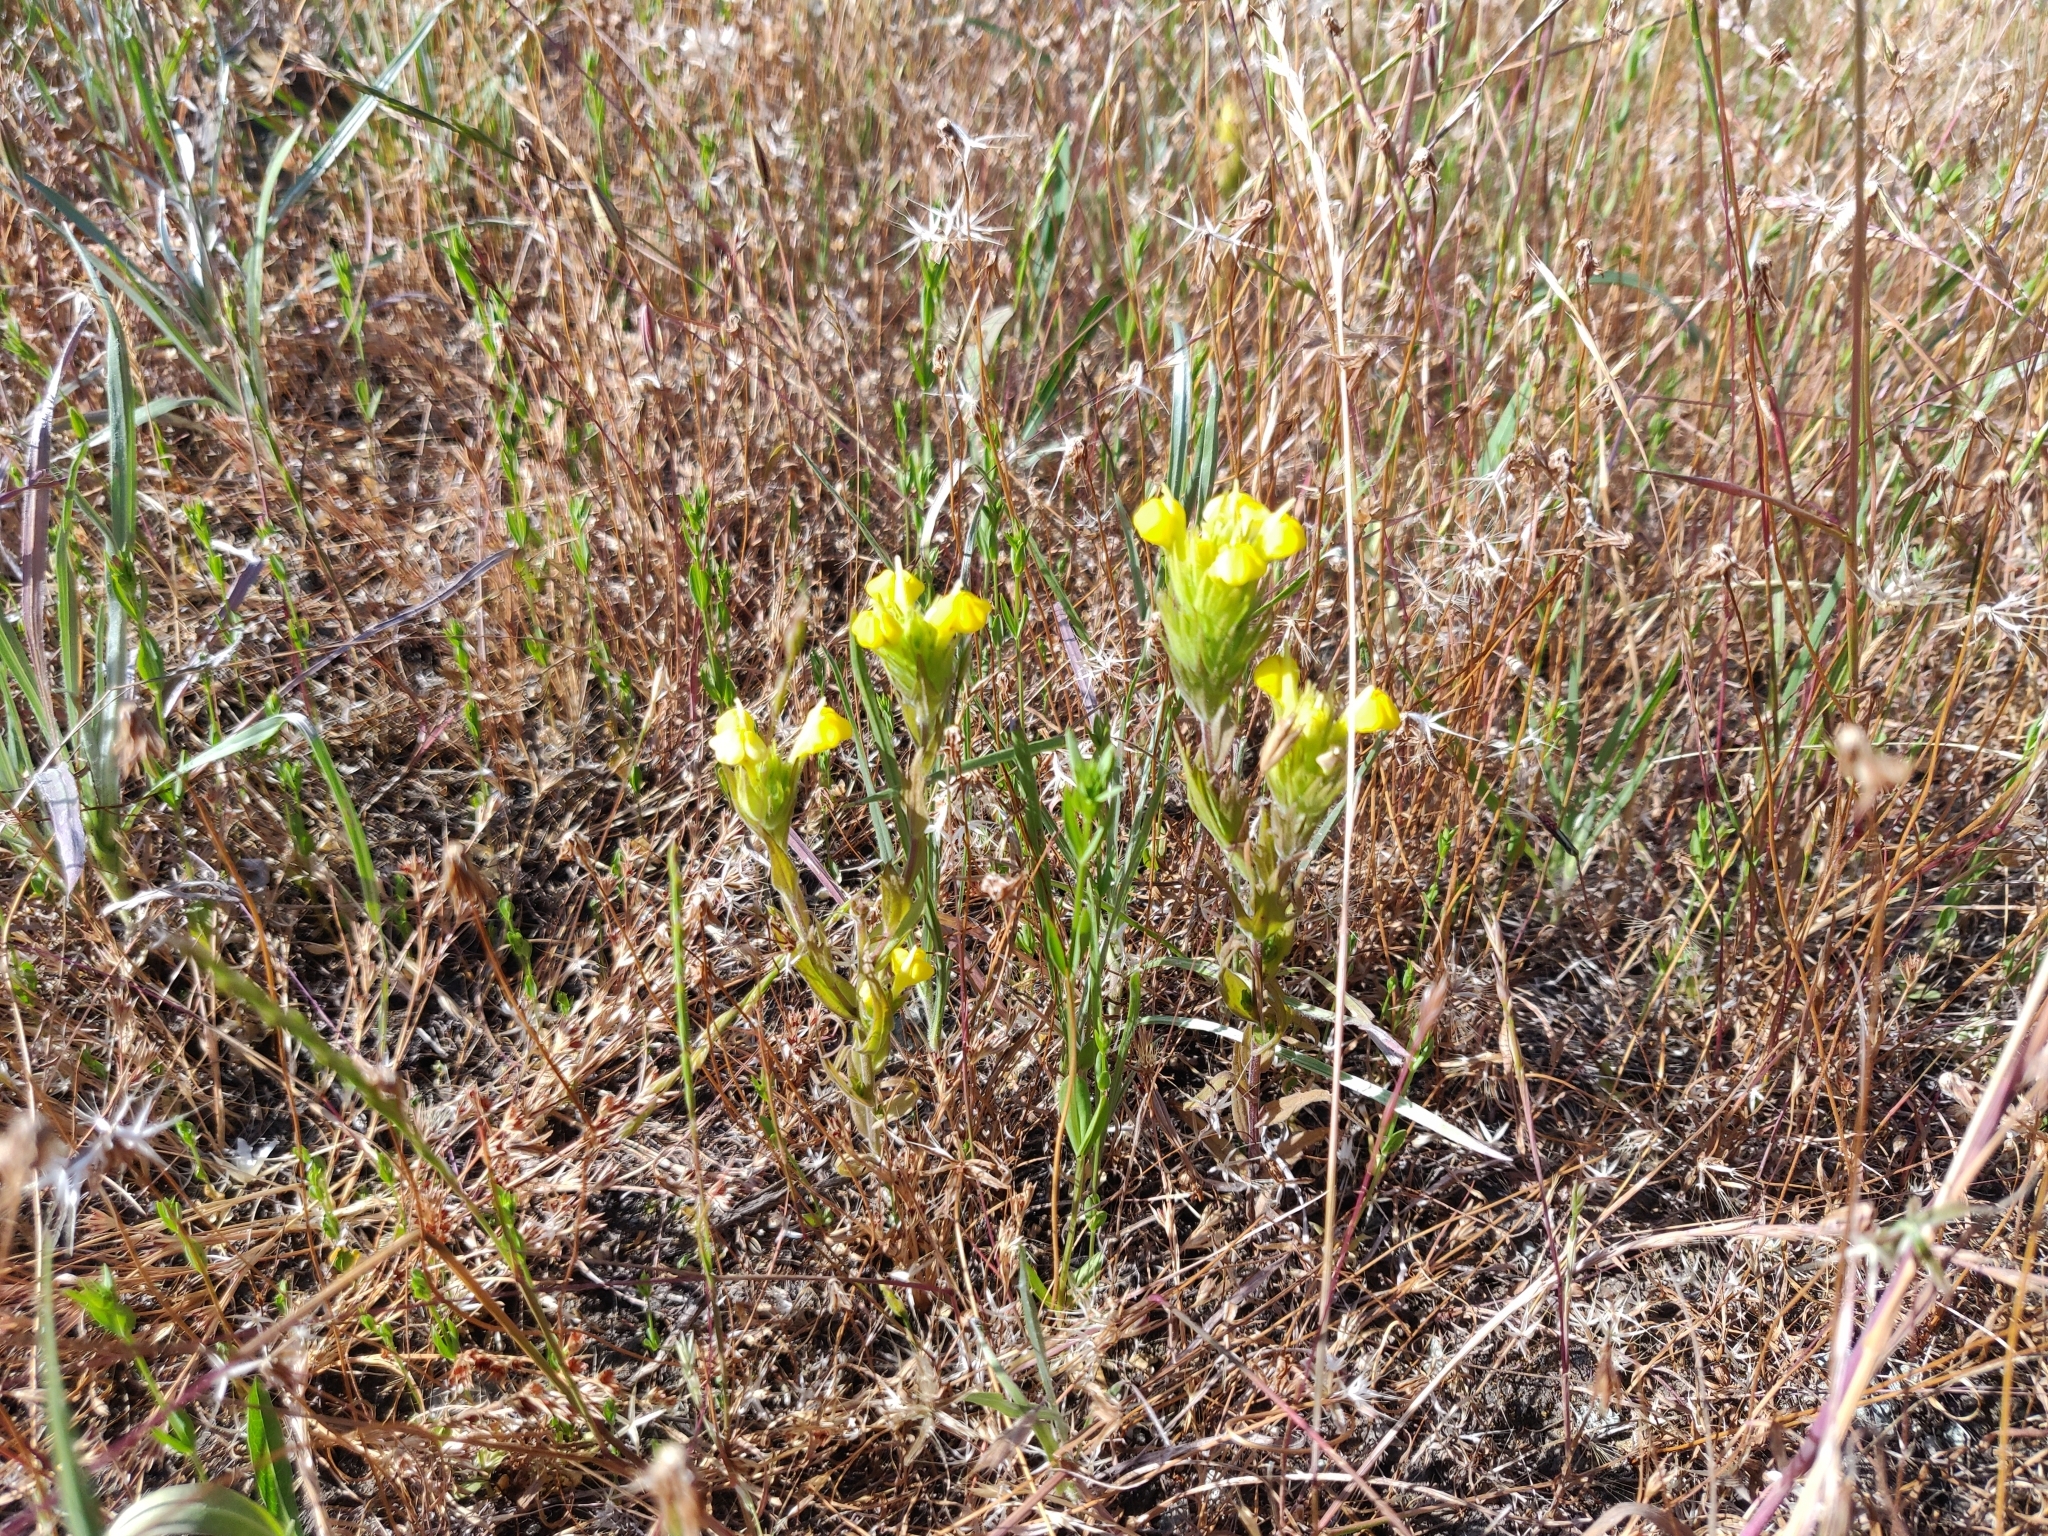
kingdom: Plantae
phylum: Tracheophyta
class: Magnoliopsida
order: Lamiales
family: Orobanchaceae
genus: Castilleja
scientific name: Castilleja rubicundula
